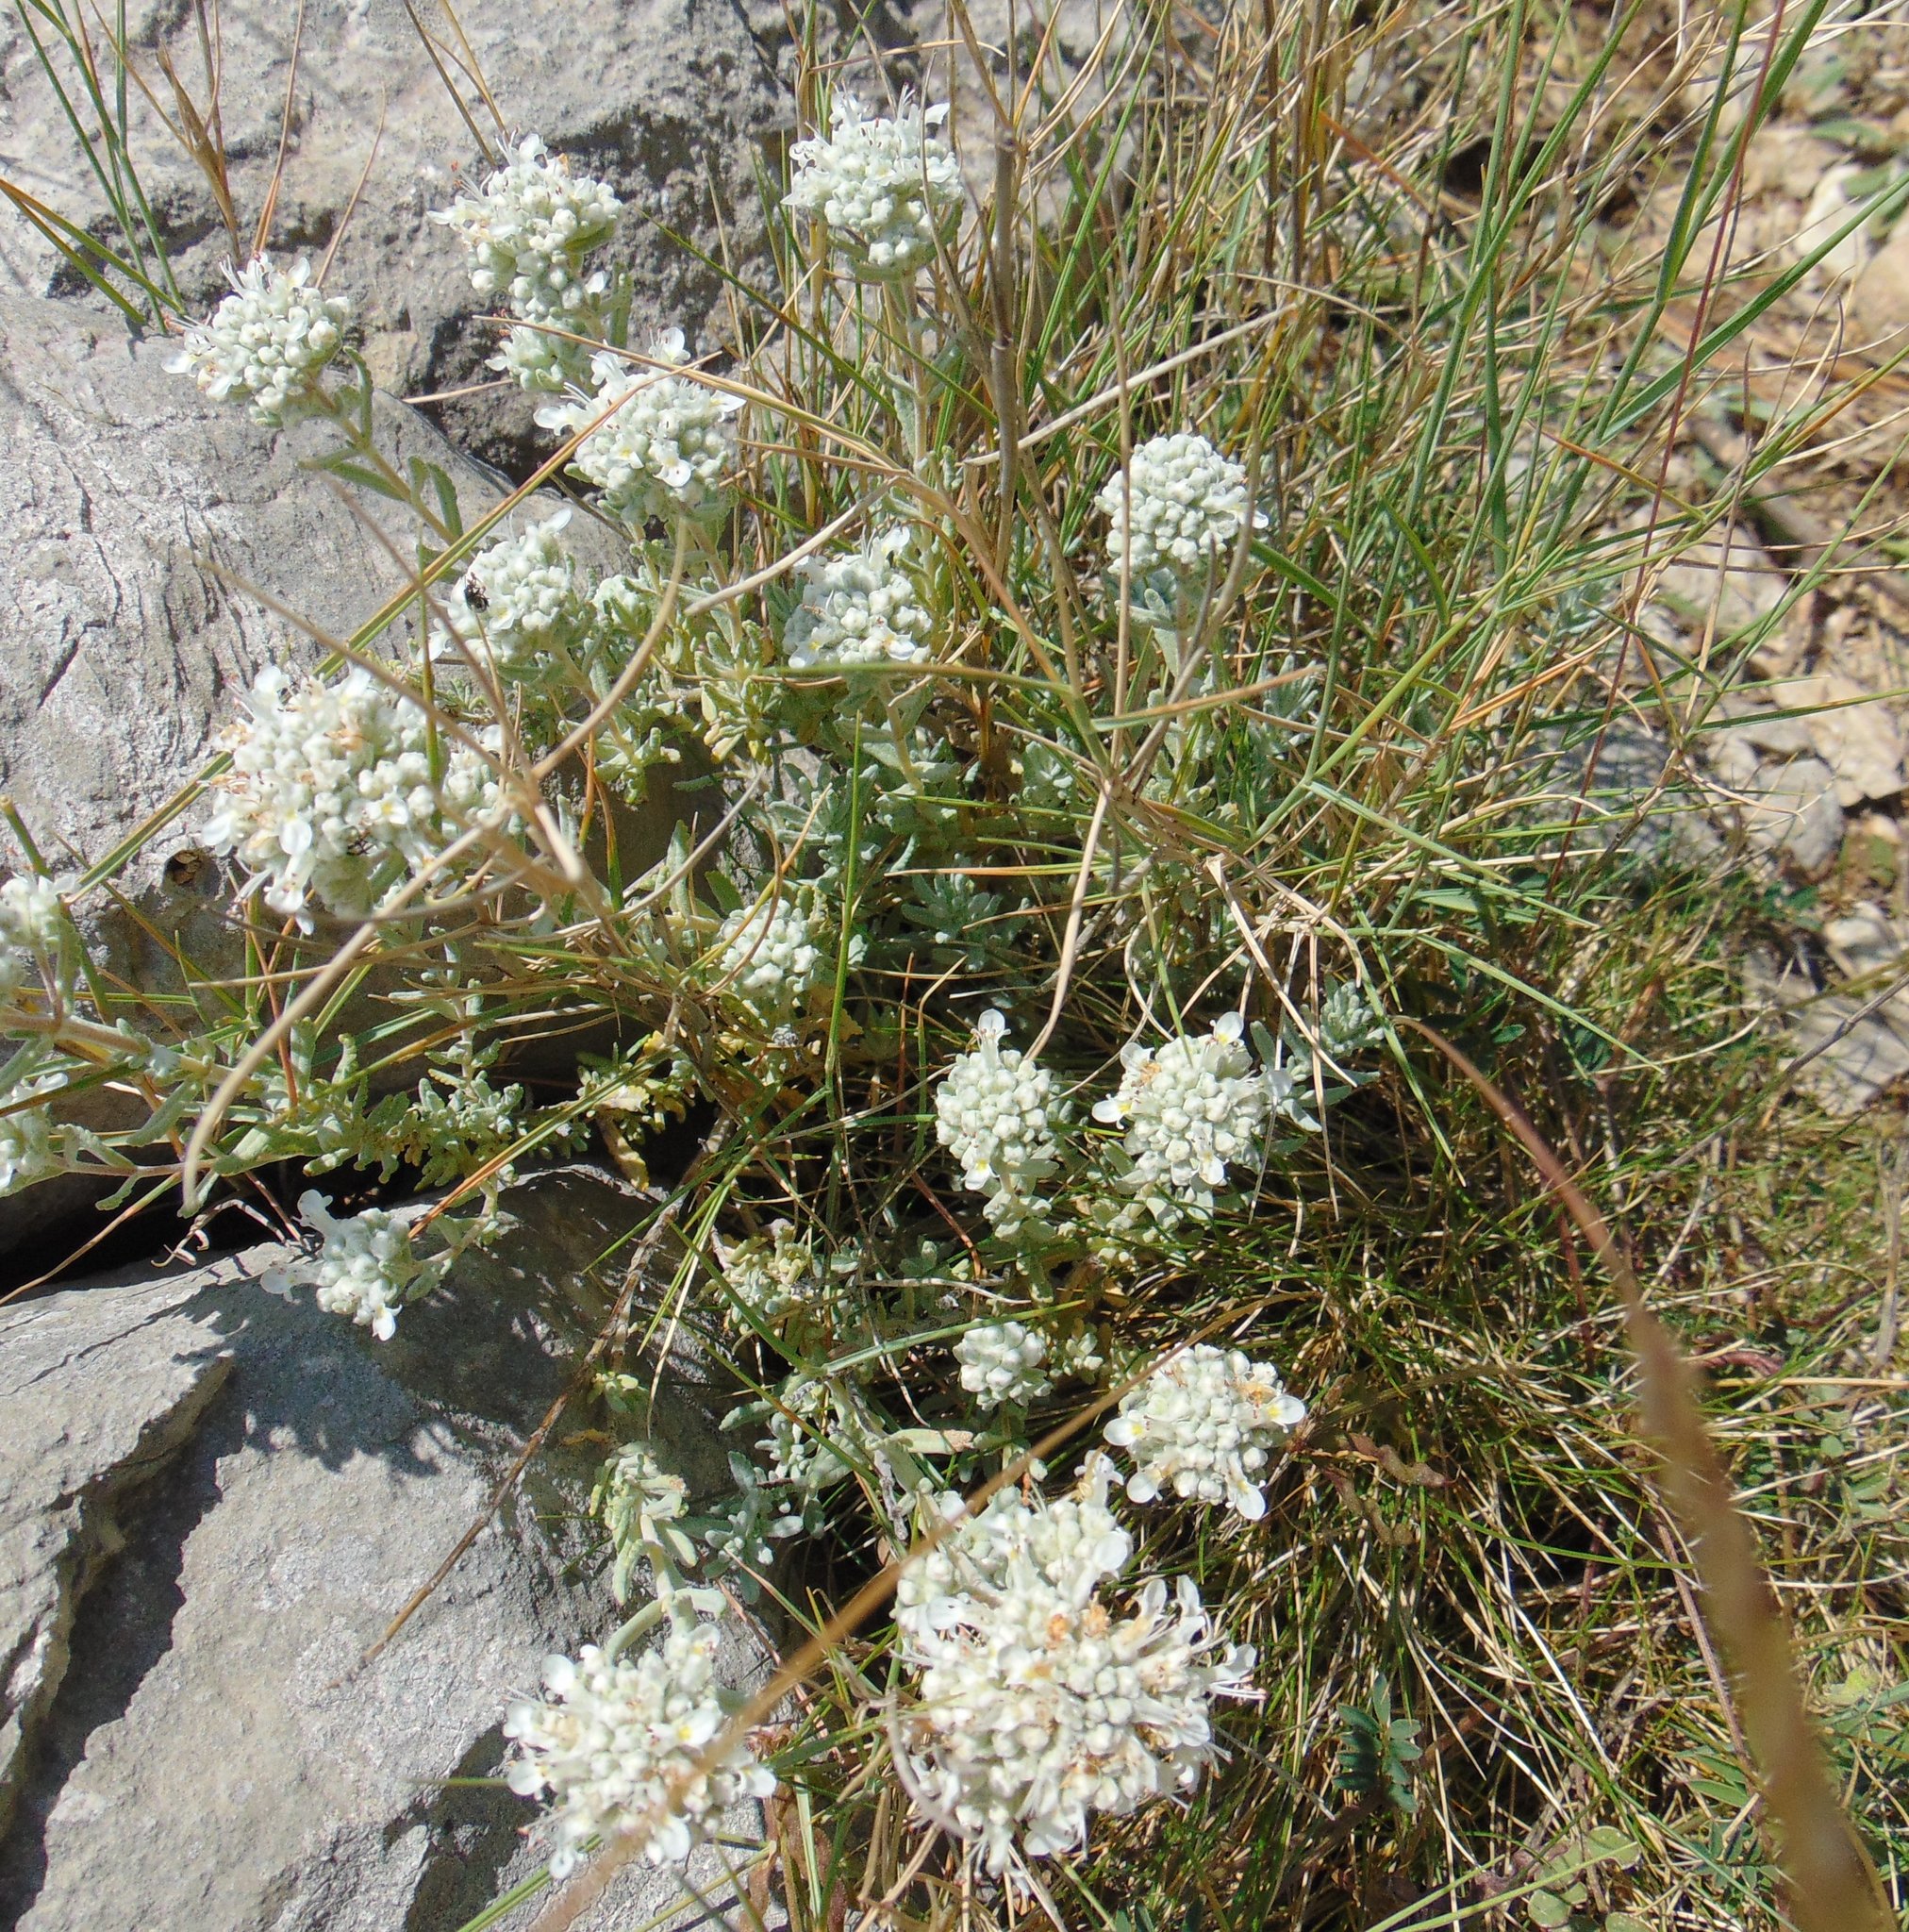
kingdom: Plantae
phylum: Tracheophyta
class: Magnoliopsida
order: Lamiales
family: Lamiaceae
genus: Teucrium
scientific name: Teucrium capitatum
